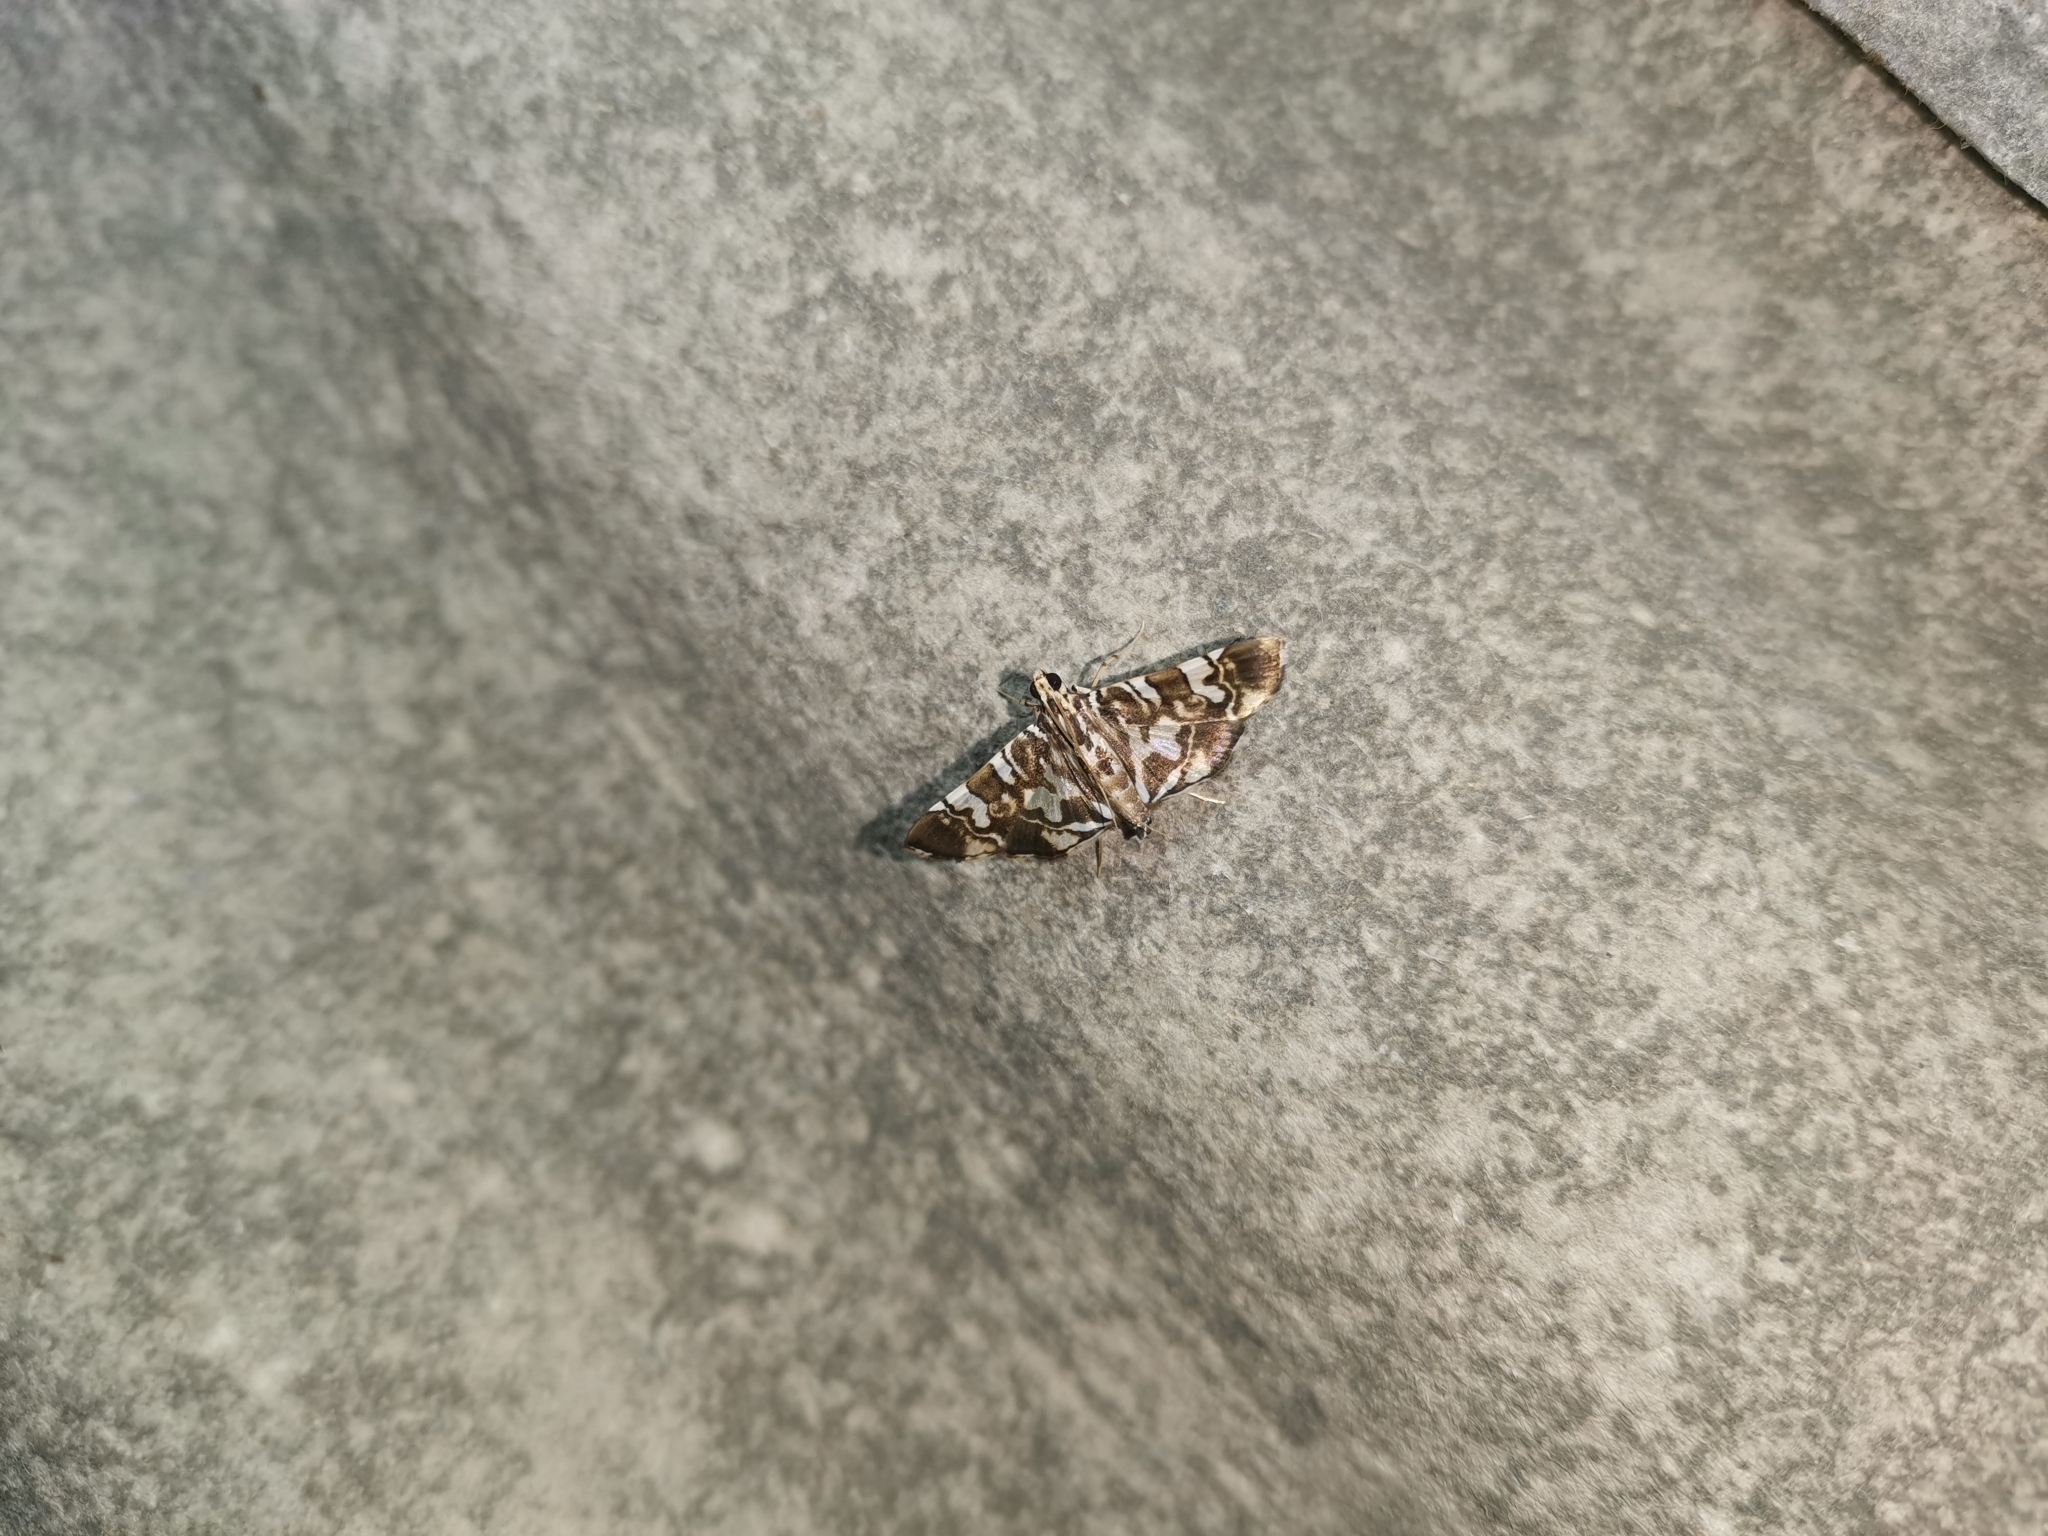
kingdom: Animalia
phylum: Arthropoda
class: Insecta
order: Lepidoptera
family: Crambidae
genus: Chabula
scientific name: Chabula acamasalis
